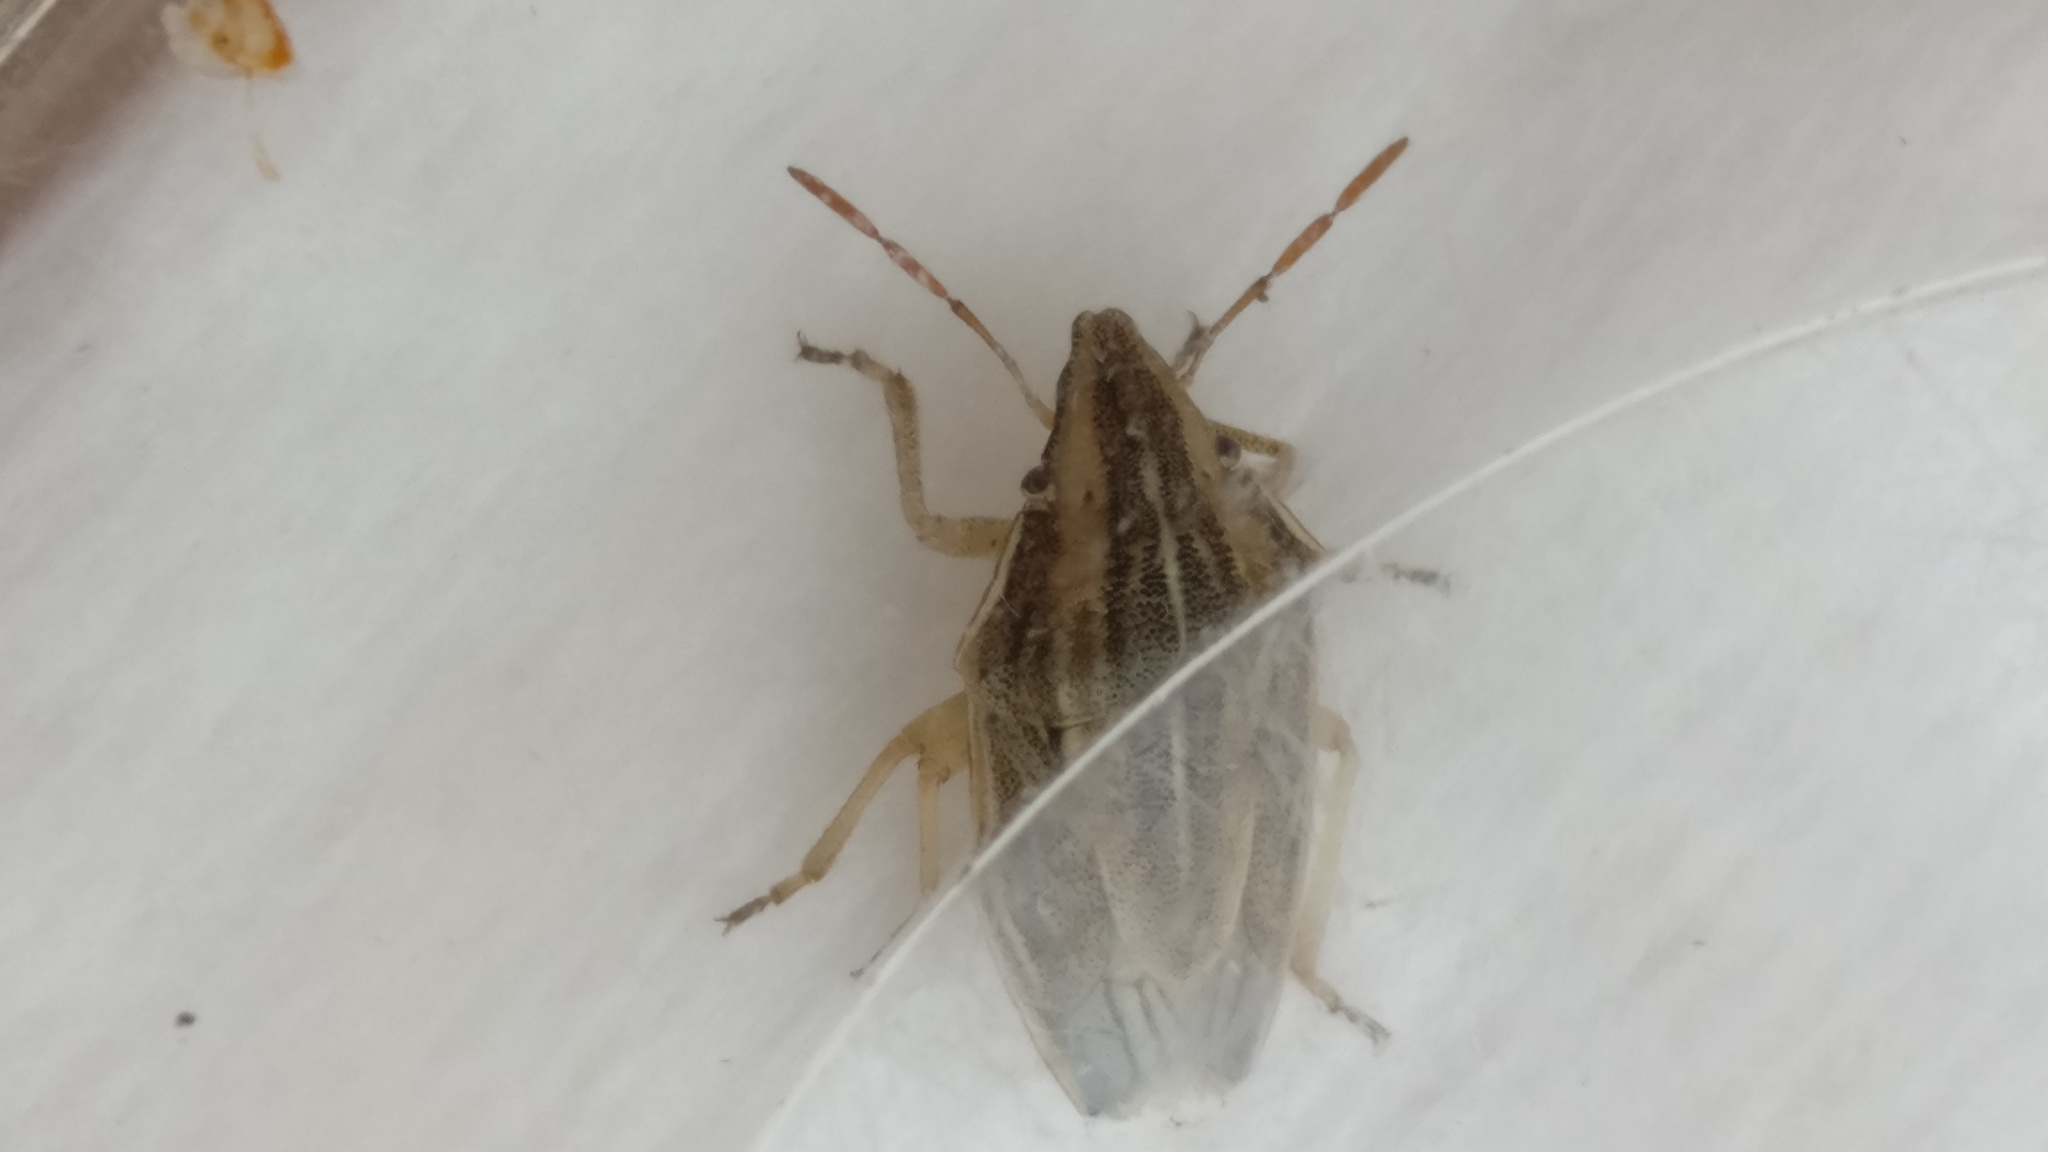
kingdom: Animalia
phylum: Arthropoda
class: Insecta
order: Hemiptera
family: Pentatomidae
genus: Aelia
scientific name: Aelia acuminata
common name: Bishop's mitre
